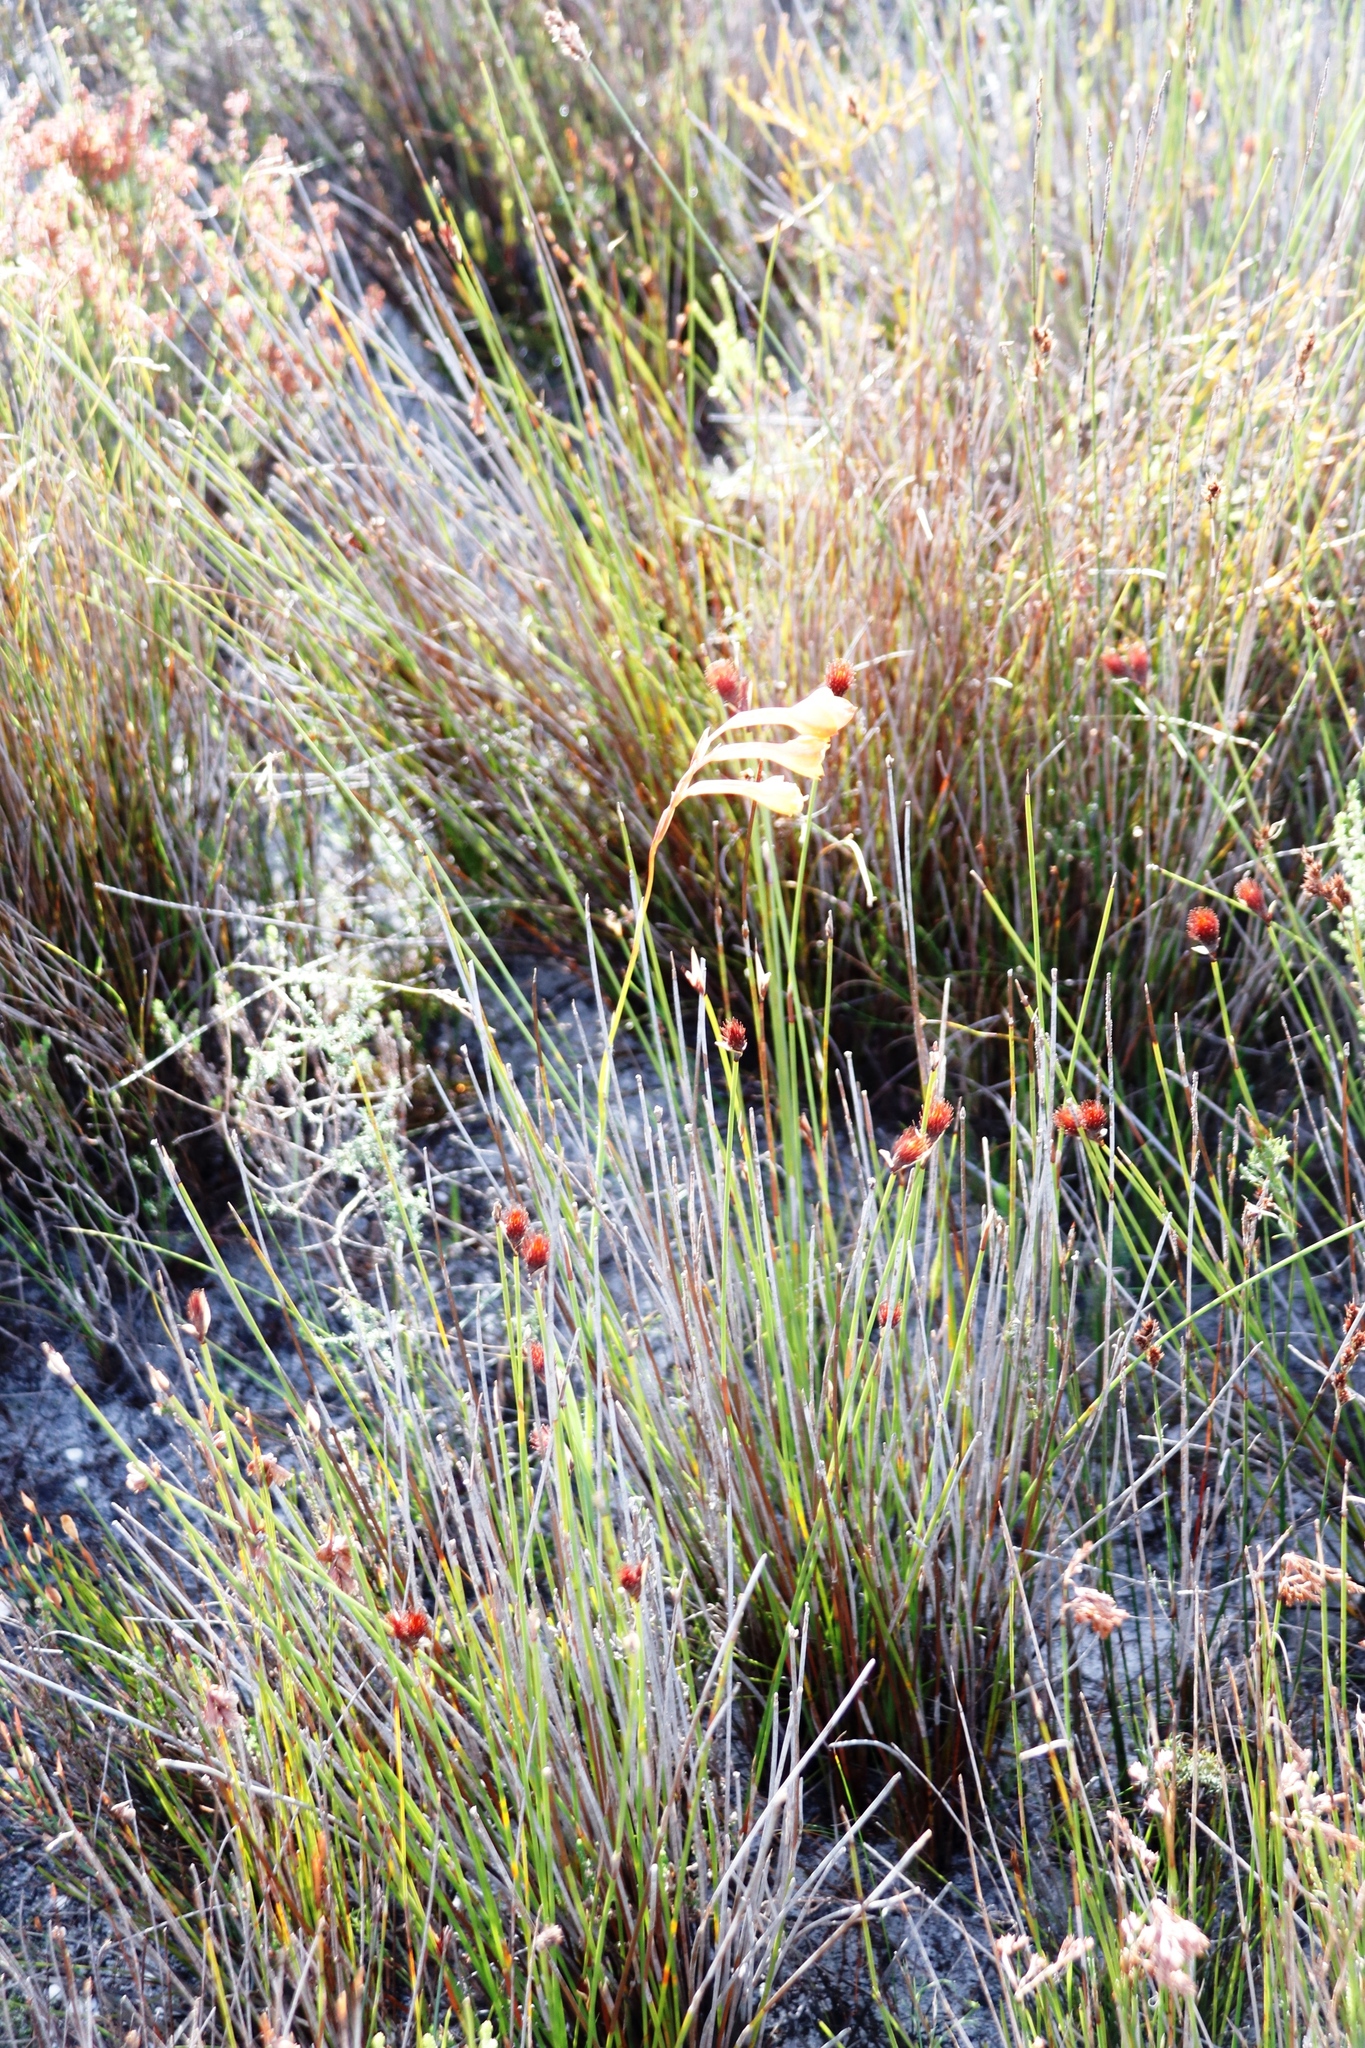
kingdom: Plantae
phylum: Tracheophyta
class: Liliopsida
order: Asparagales
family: Iridaceae
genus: Gladiolus
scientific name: Gladiolus merianellus
